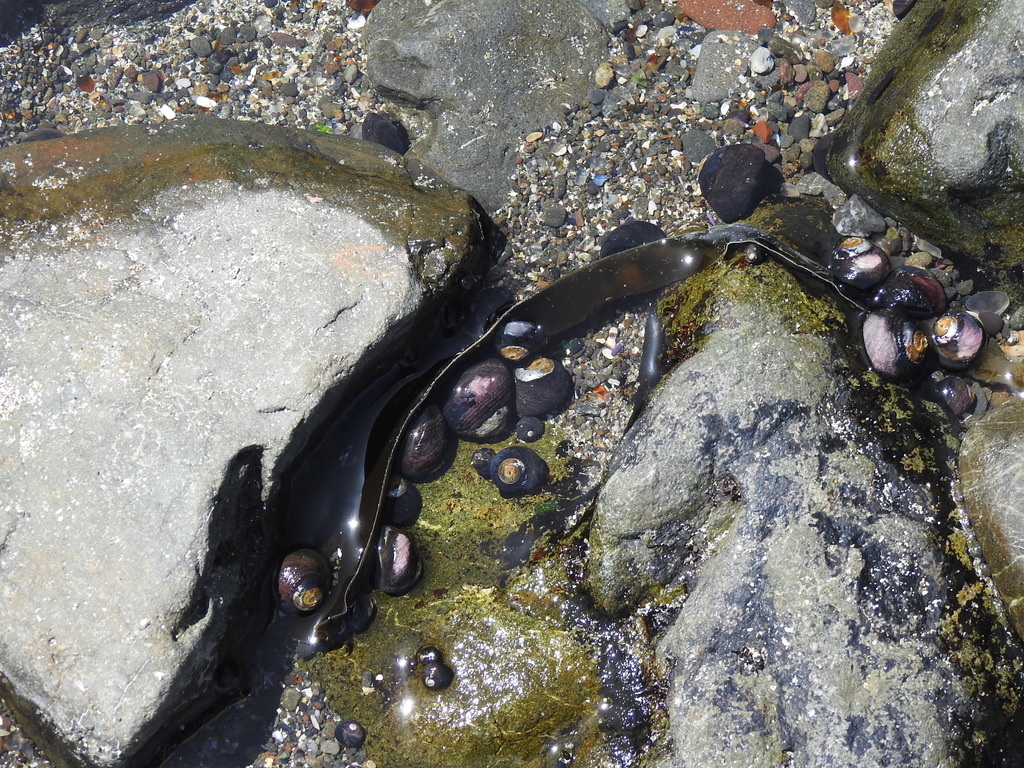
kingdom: Animalia
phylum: Mollusca
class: Gastropoda
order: Trochida
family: Tegulidae
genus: Tegula
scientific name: Tegula funebralis
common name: Black tegula
